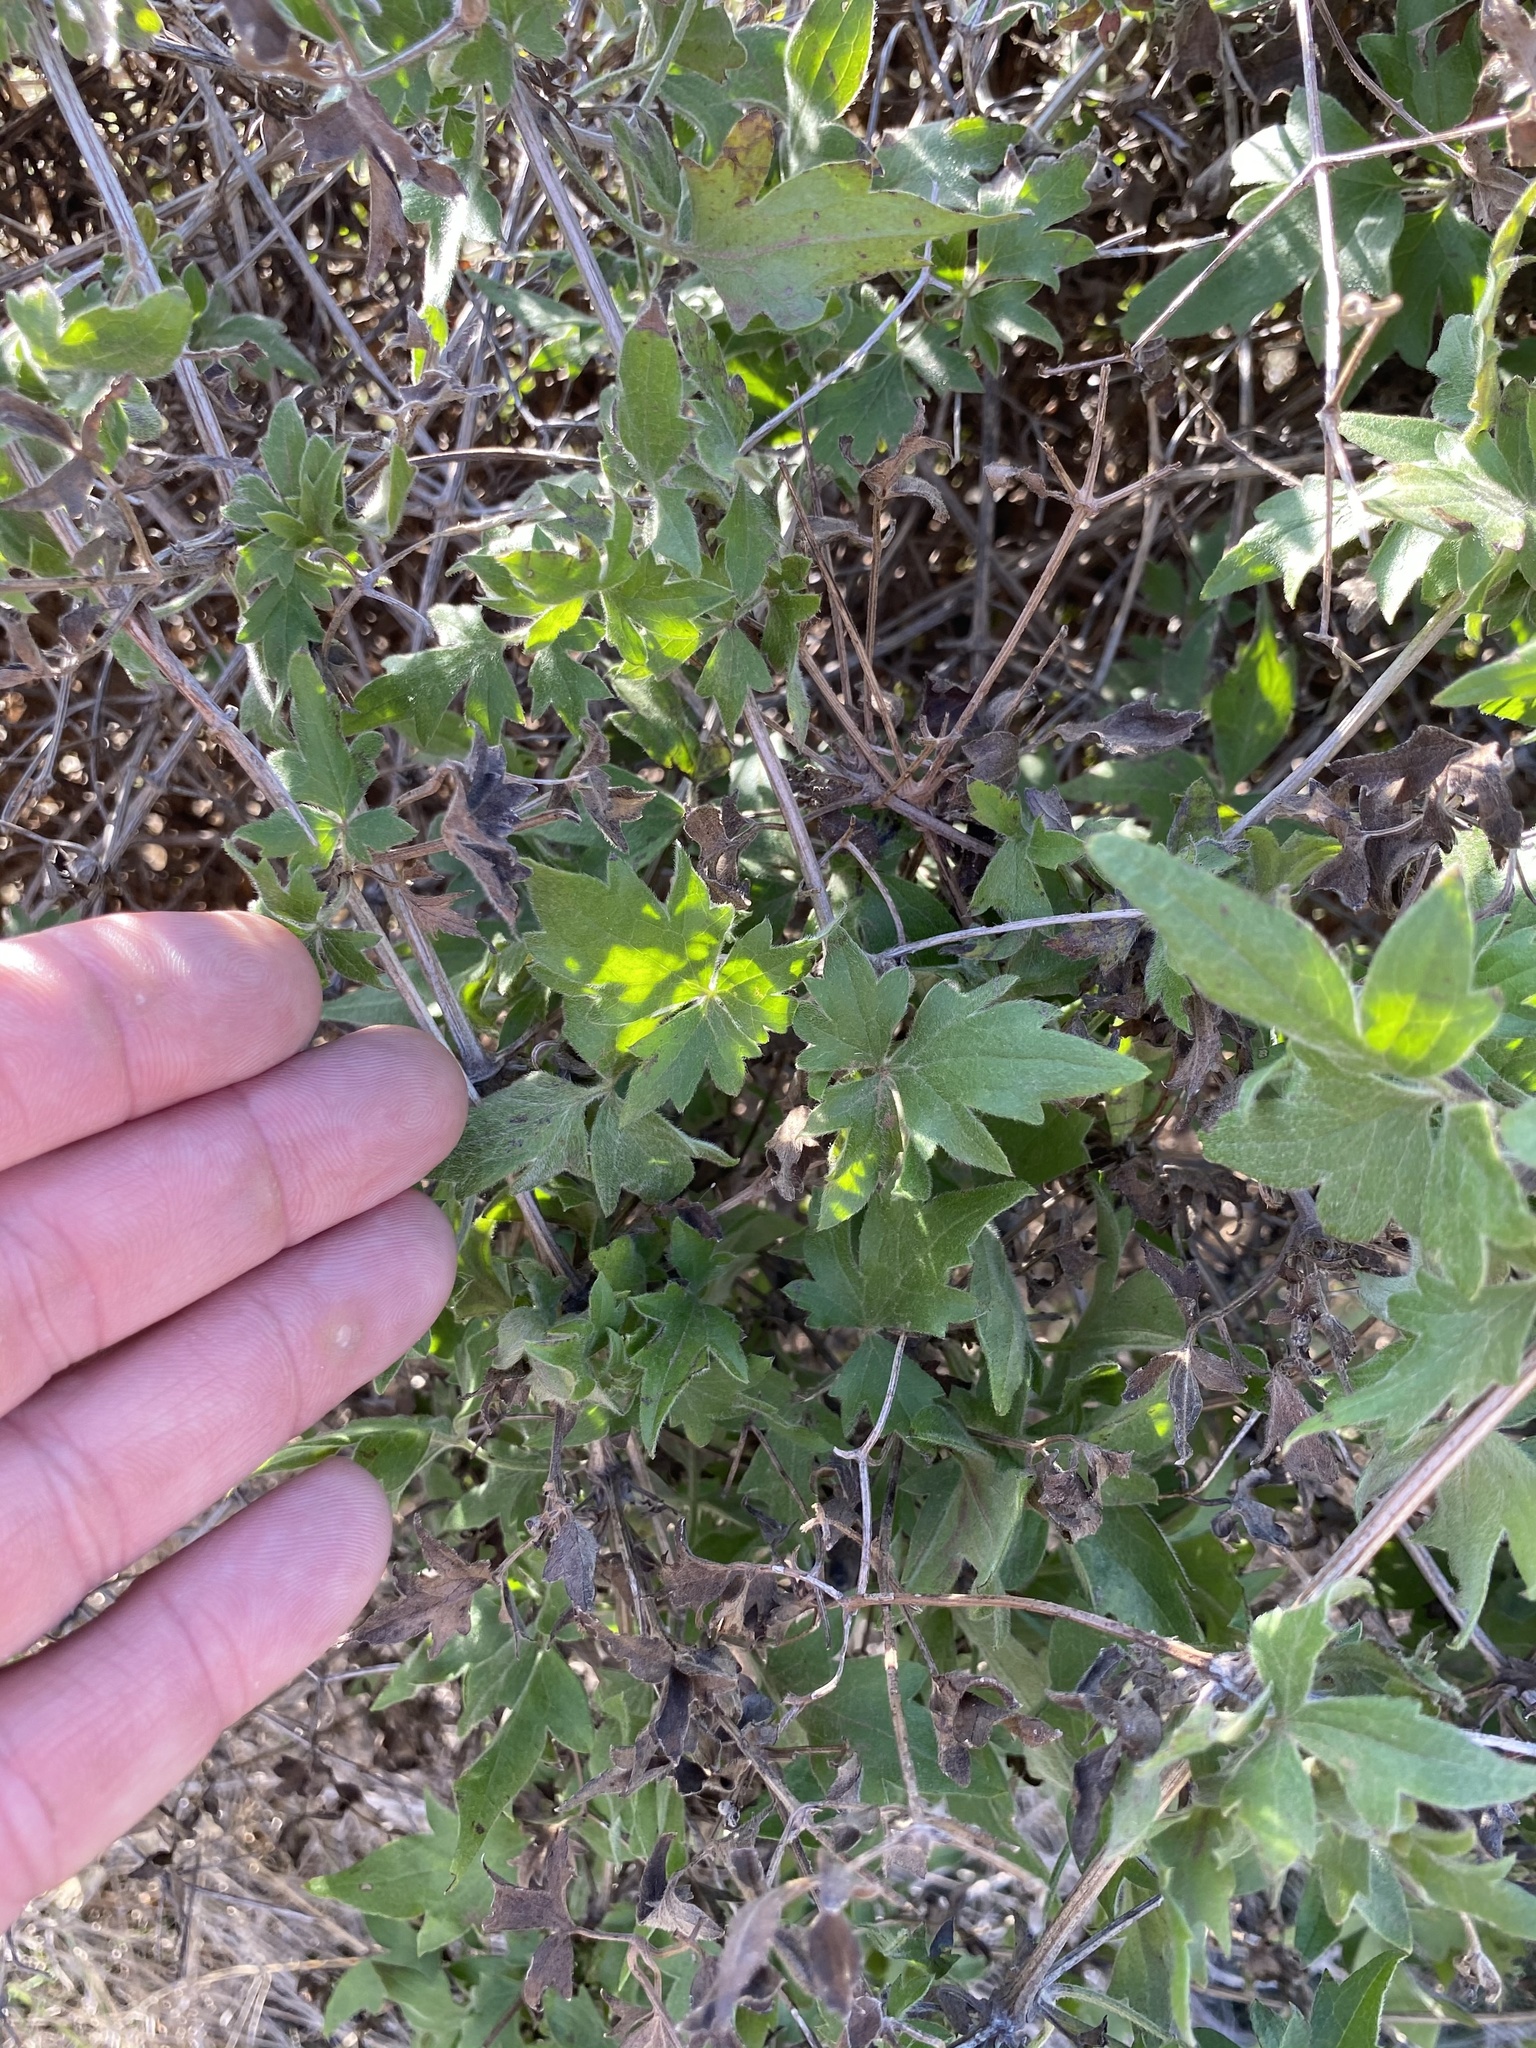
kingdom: Plantae
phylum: Tracheophyta
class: Magnoliopsida
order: Ranunculales
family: Ranunculaceae
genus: Clematis
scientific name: Clematis drummondii
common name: Texas virgin's bower
